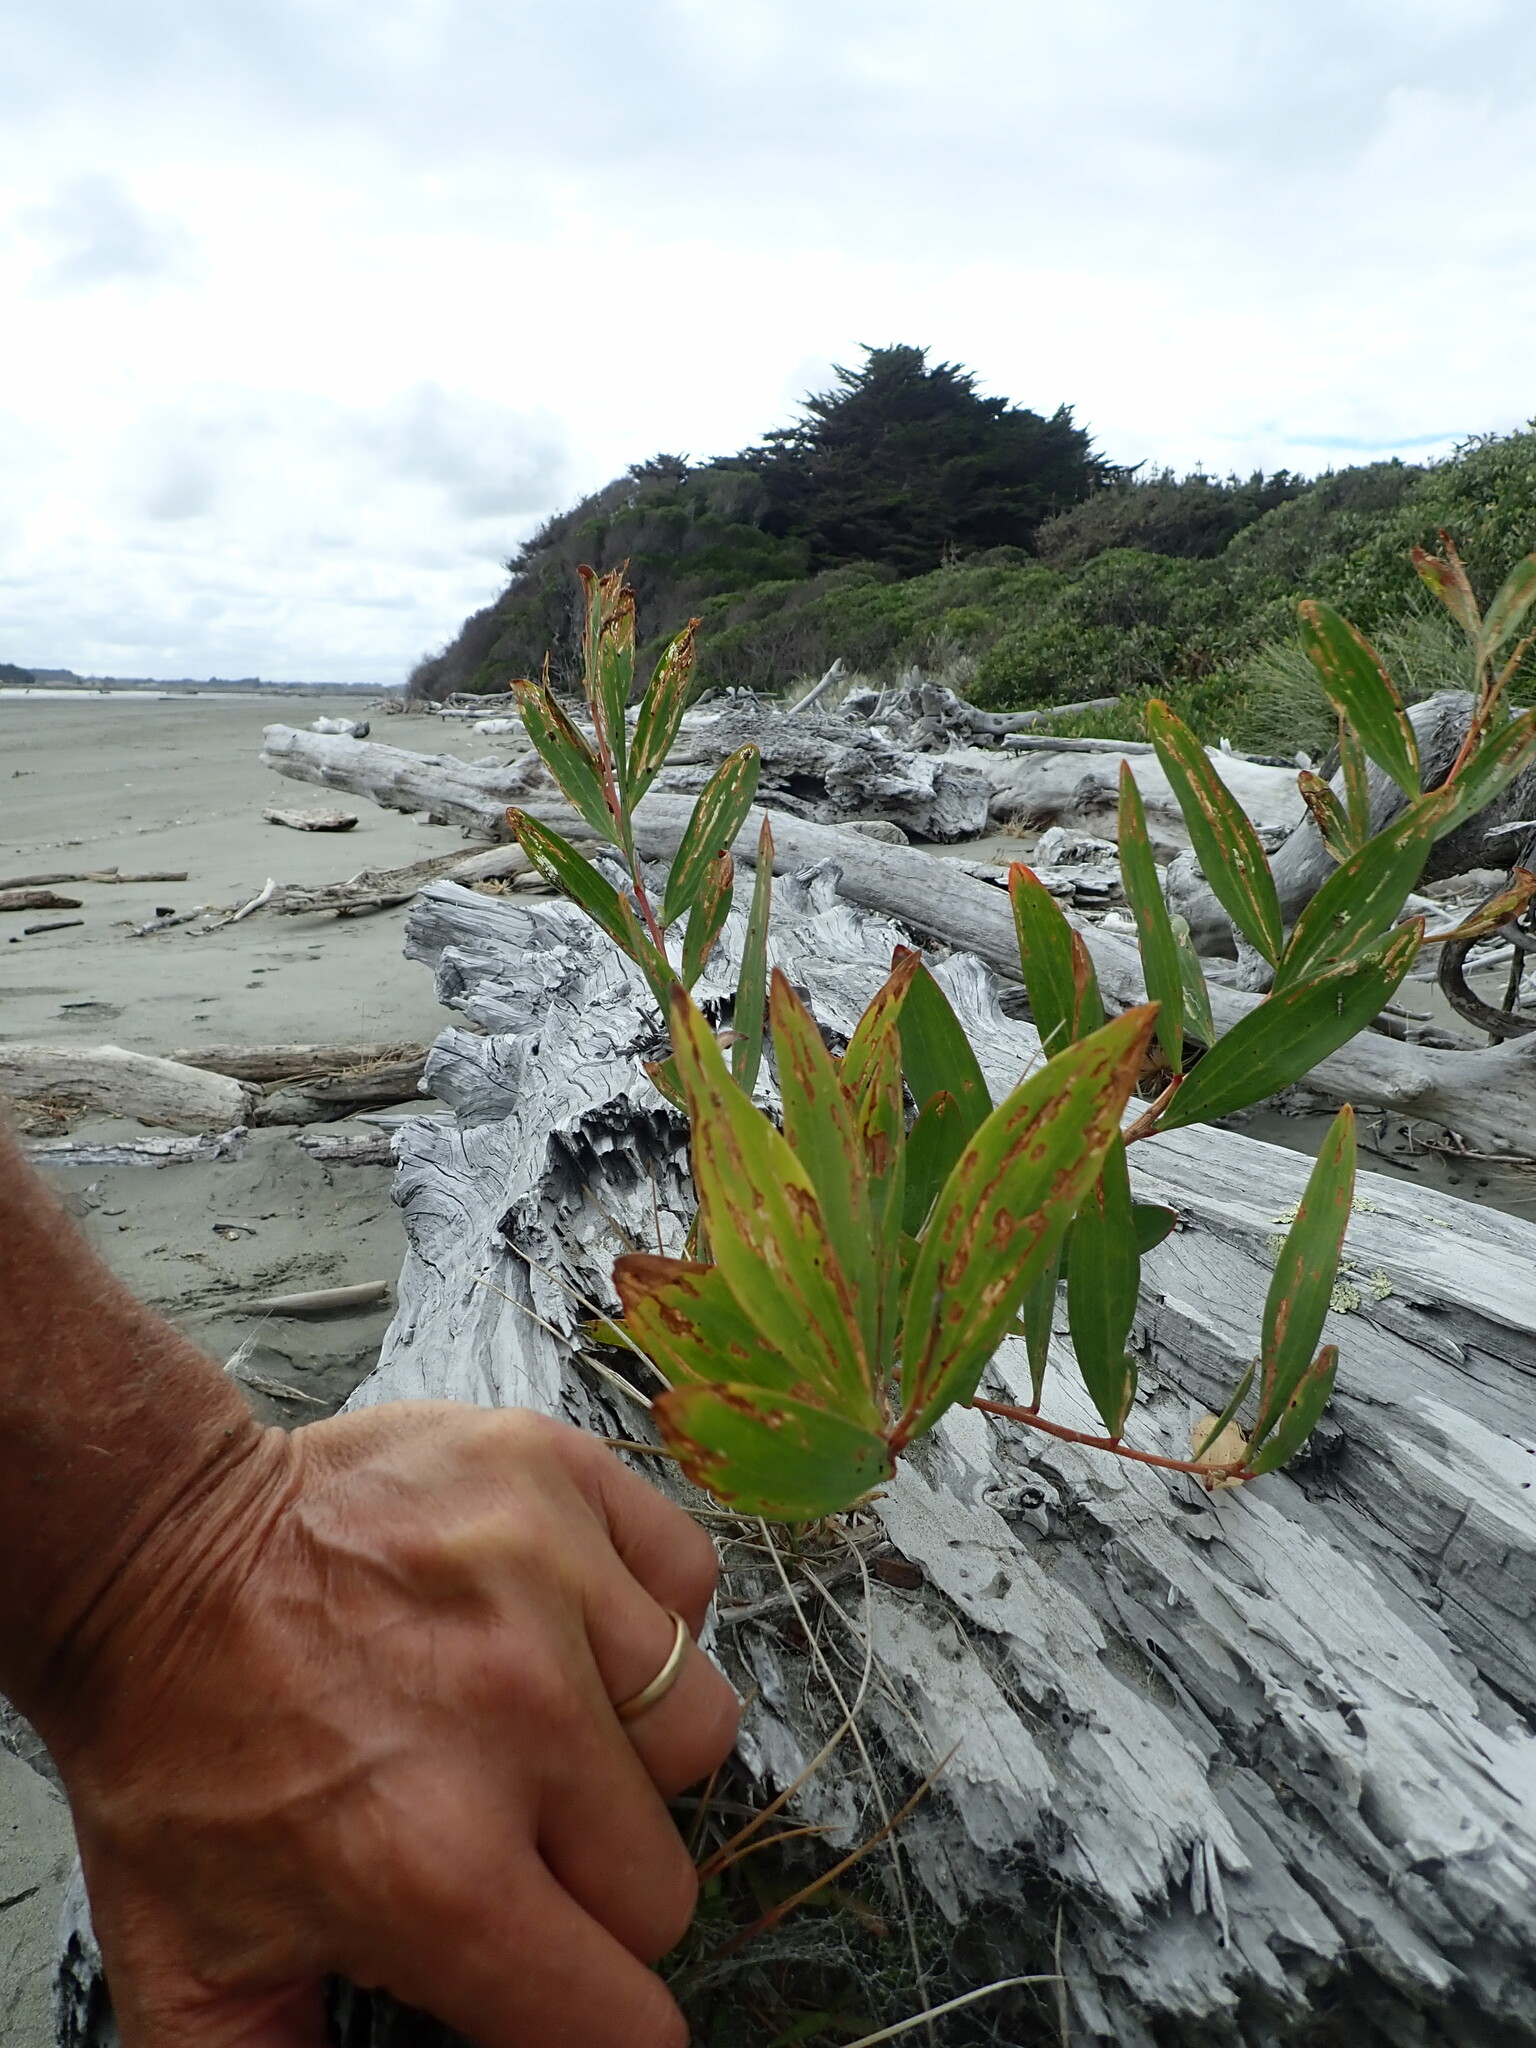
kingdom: Plantae
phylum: Tracheophyta
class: Magnoliopsida
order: Fabales
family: Fabaceae
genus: Acacia
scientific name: Acacia longifolia
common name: Sydney golden wattle
